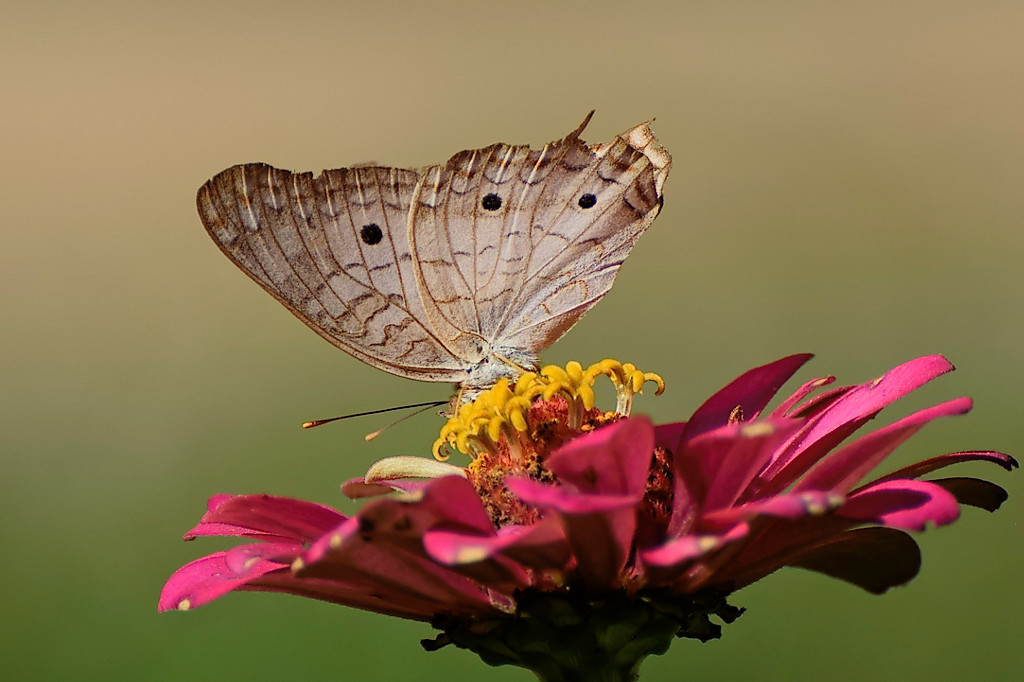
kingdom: Animalia
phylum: Arthropoda
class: Insecta
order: Lepidoptera
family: Nymphalidae
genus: Anartia
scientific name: Anartia jatrophae
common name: White peacock
